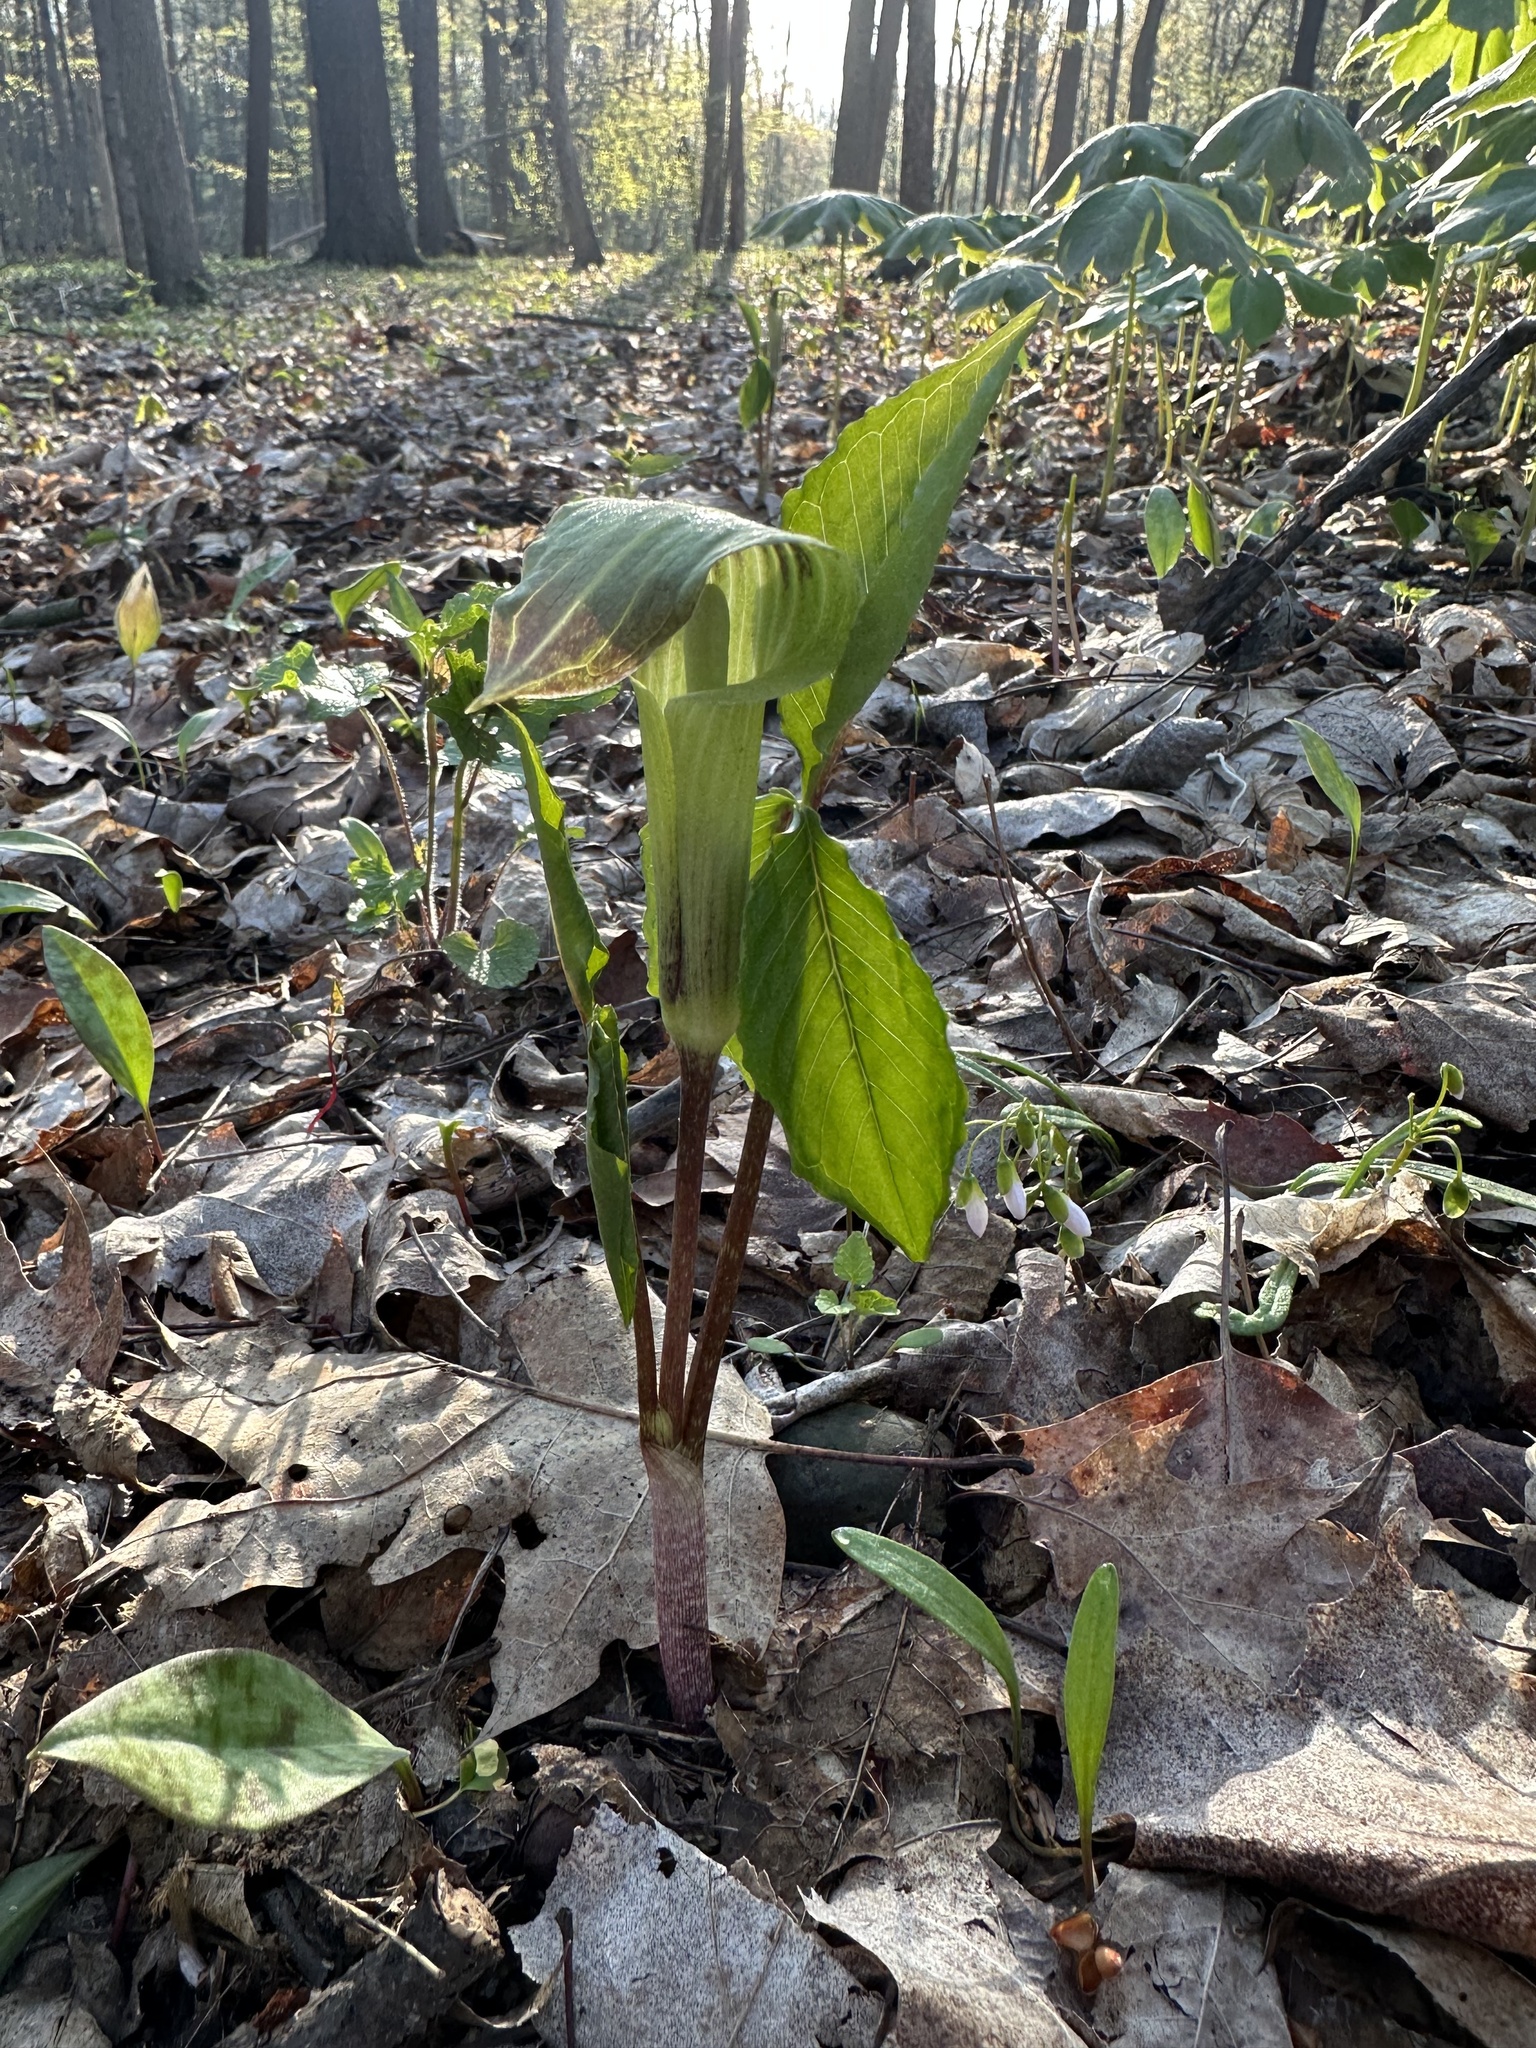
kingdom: Plantae
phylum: Tracheophyta
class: Liliopsida
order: Alismatales
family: Araceae
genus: Arisaema
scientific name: Arisaema triphyllum
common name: Jack-in-the-pulpit
